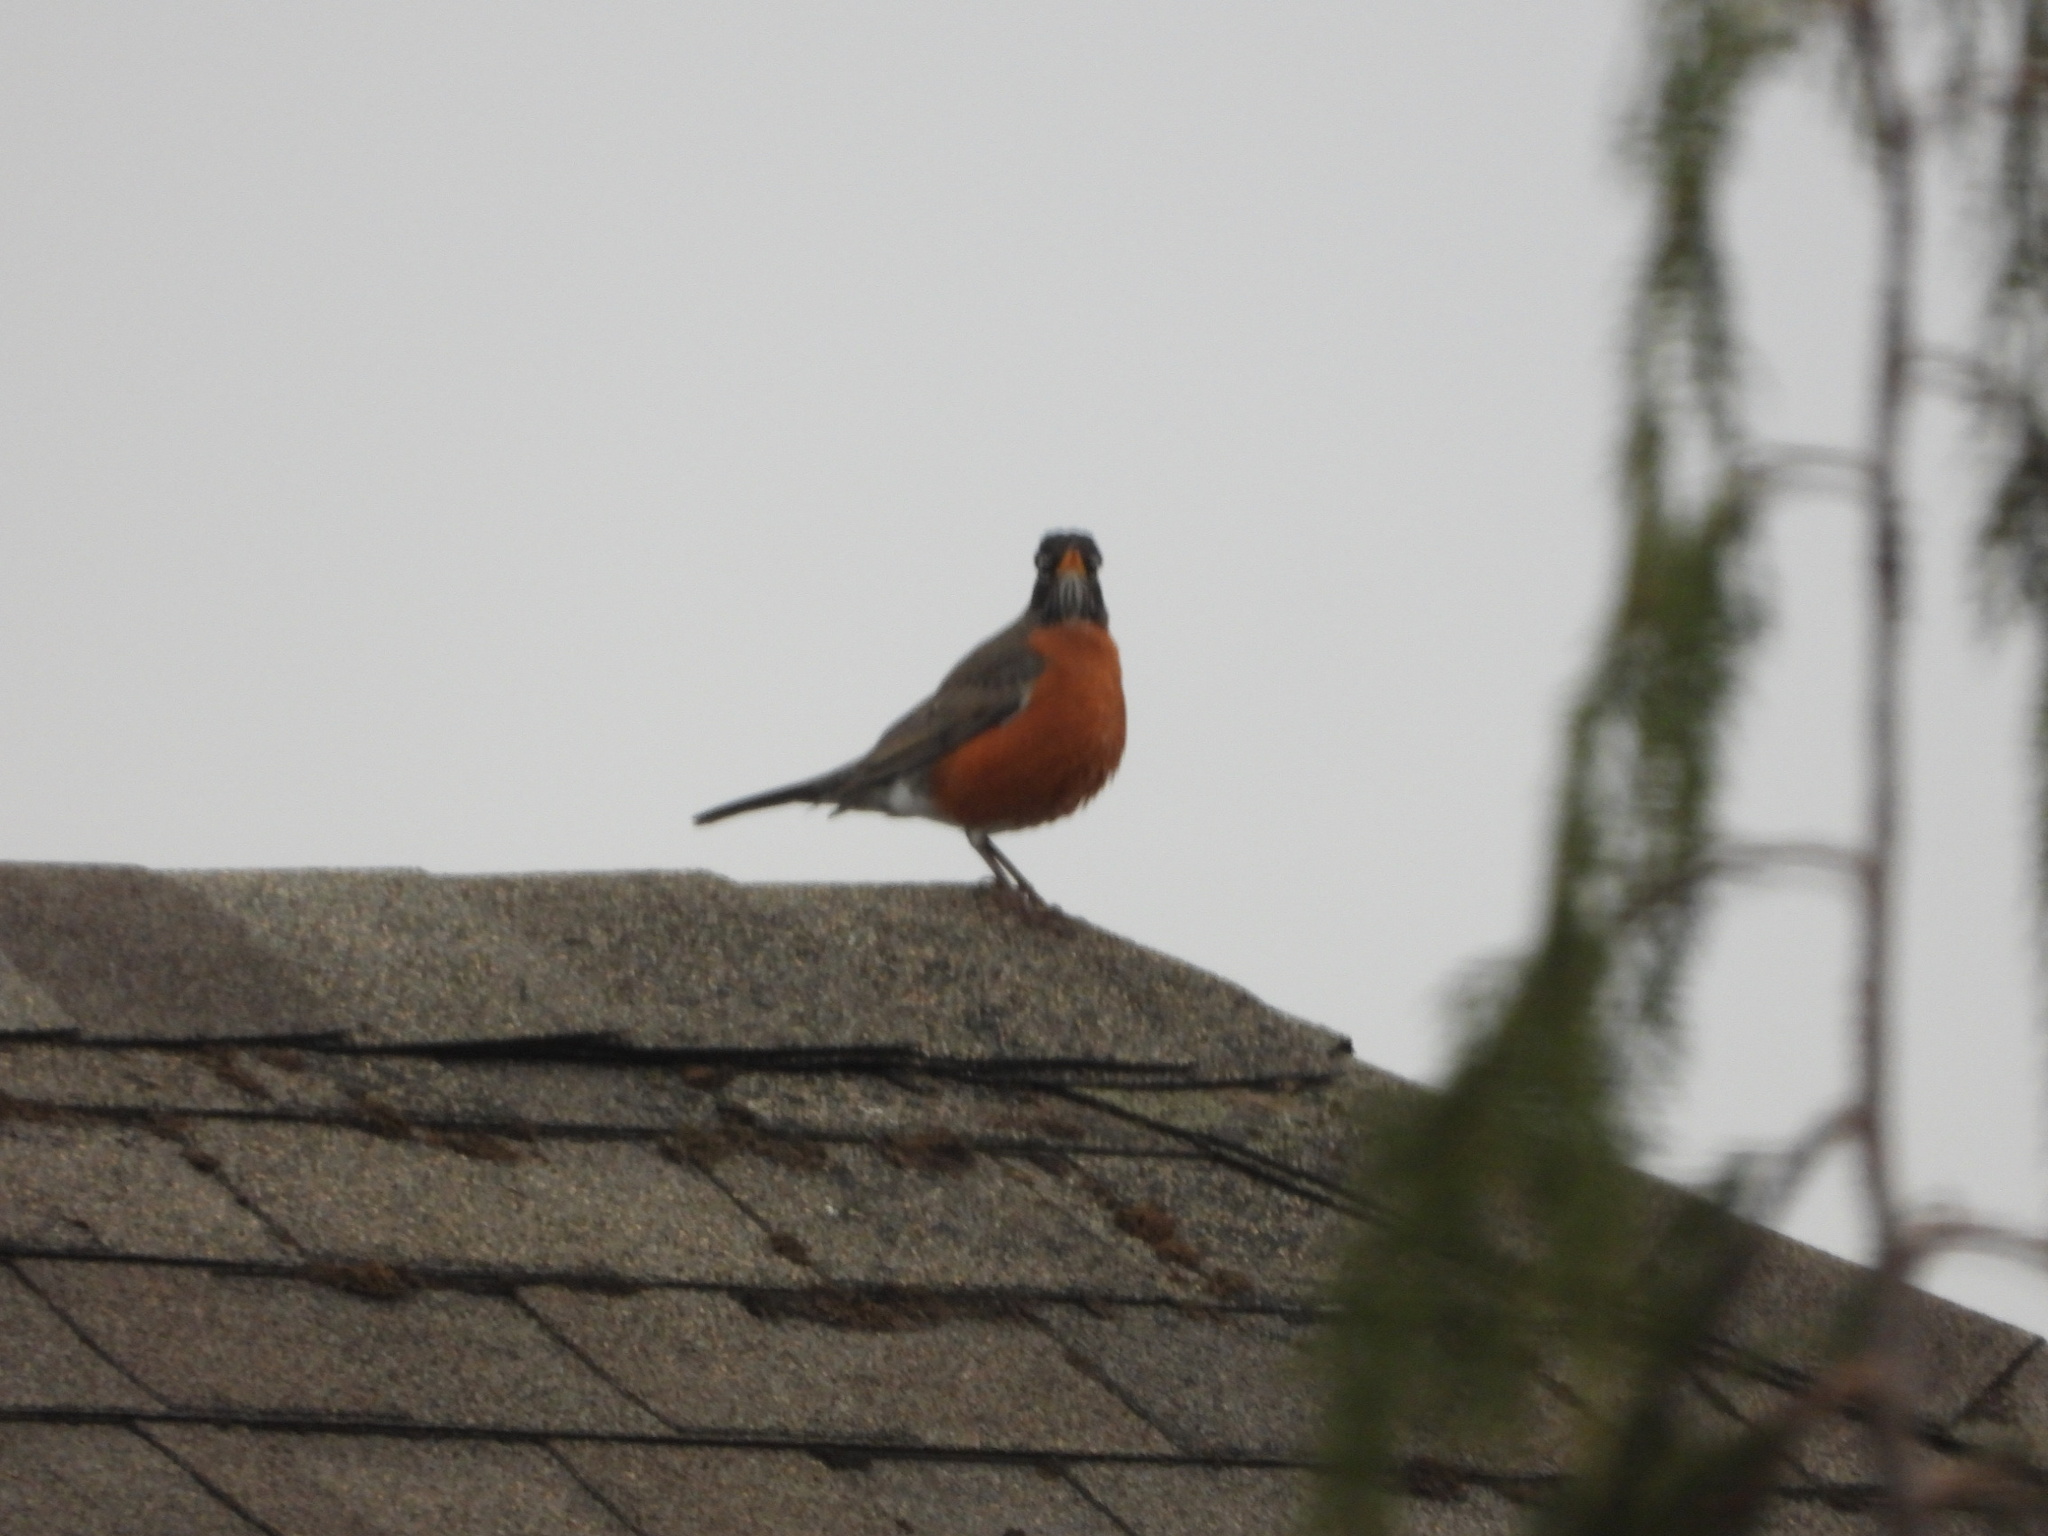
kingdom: Animalia
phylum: Chordata
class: Aves
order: Passeriformes
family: Turdidae
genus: Turdus
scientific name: Turdus migratorius
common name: American robin
